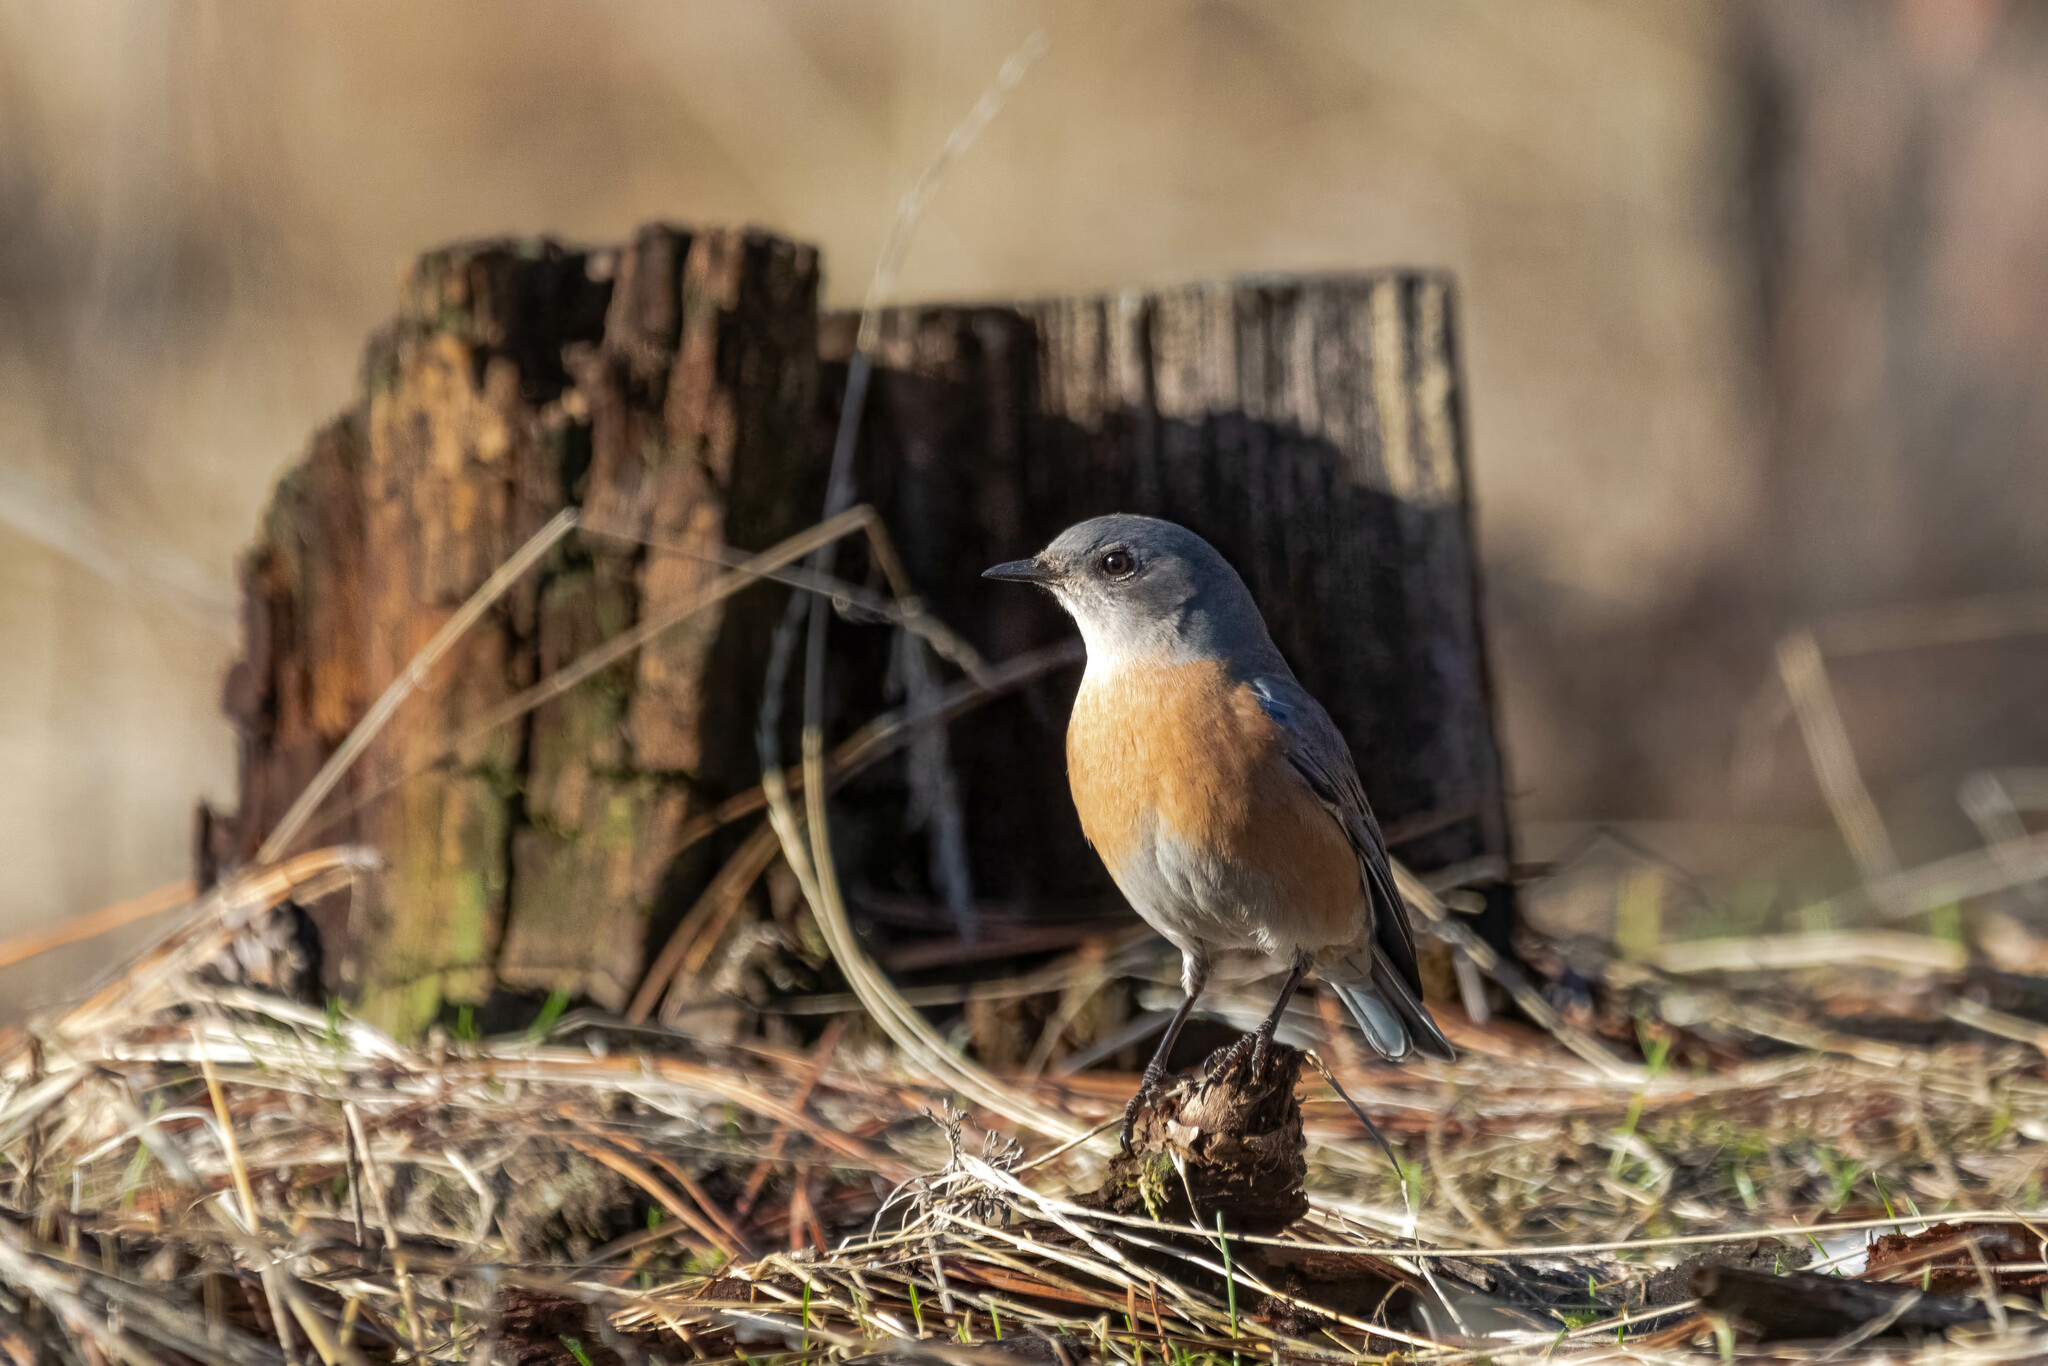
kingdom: Animalia
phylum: Chordata
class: Aves
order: Passeriformes
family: Turdidae
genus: Sialia
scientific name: Sialia mexicana
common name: Western bluebird
